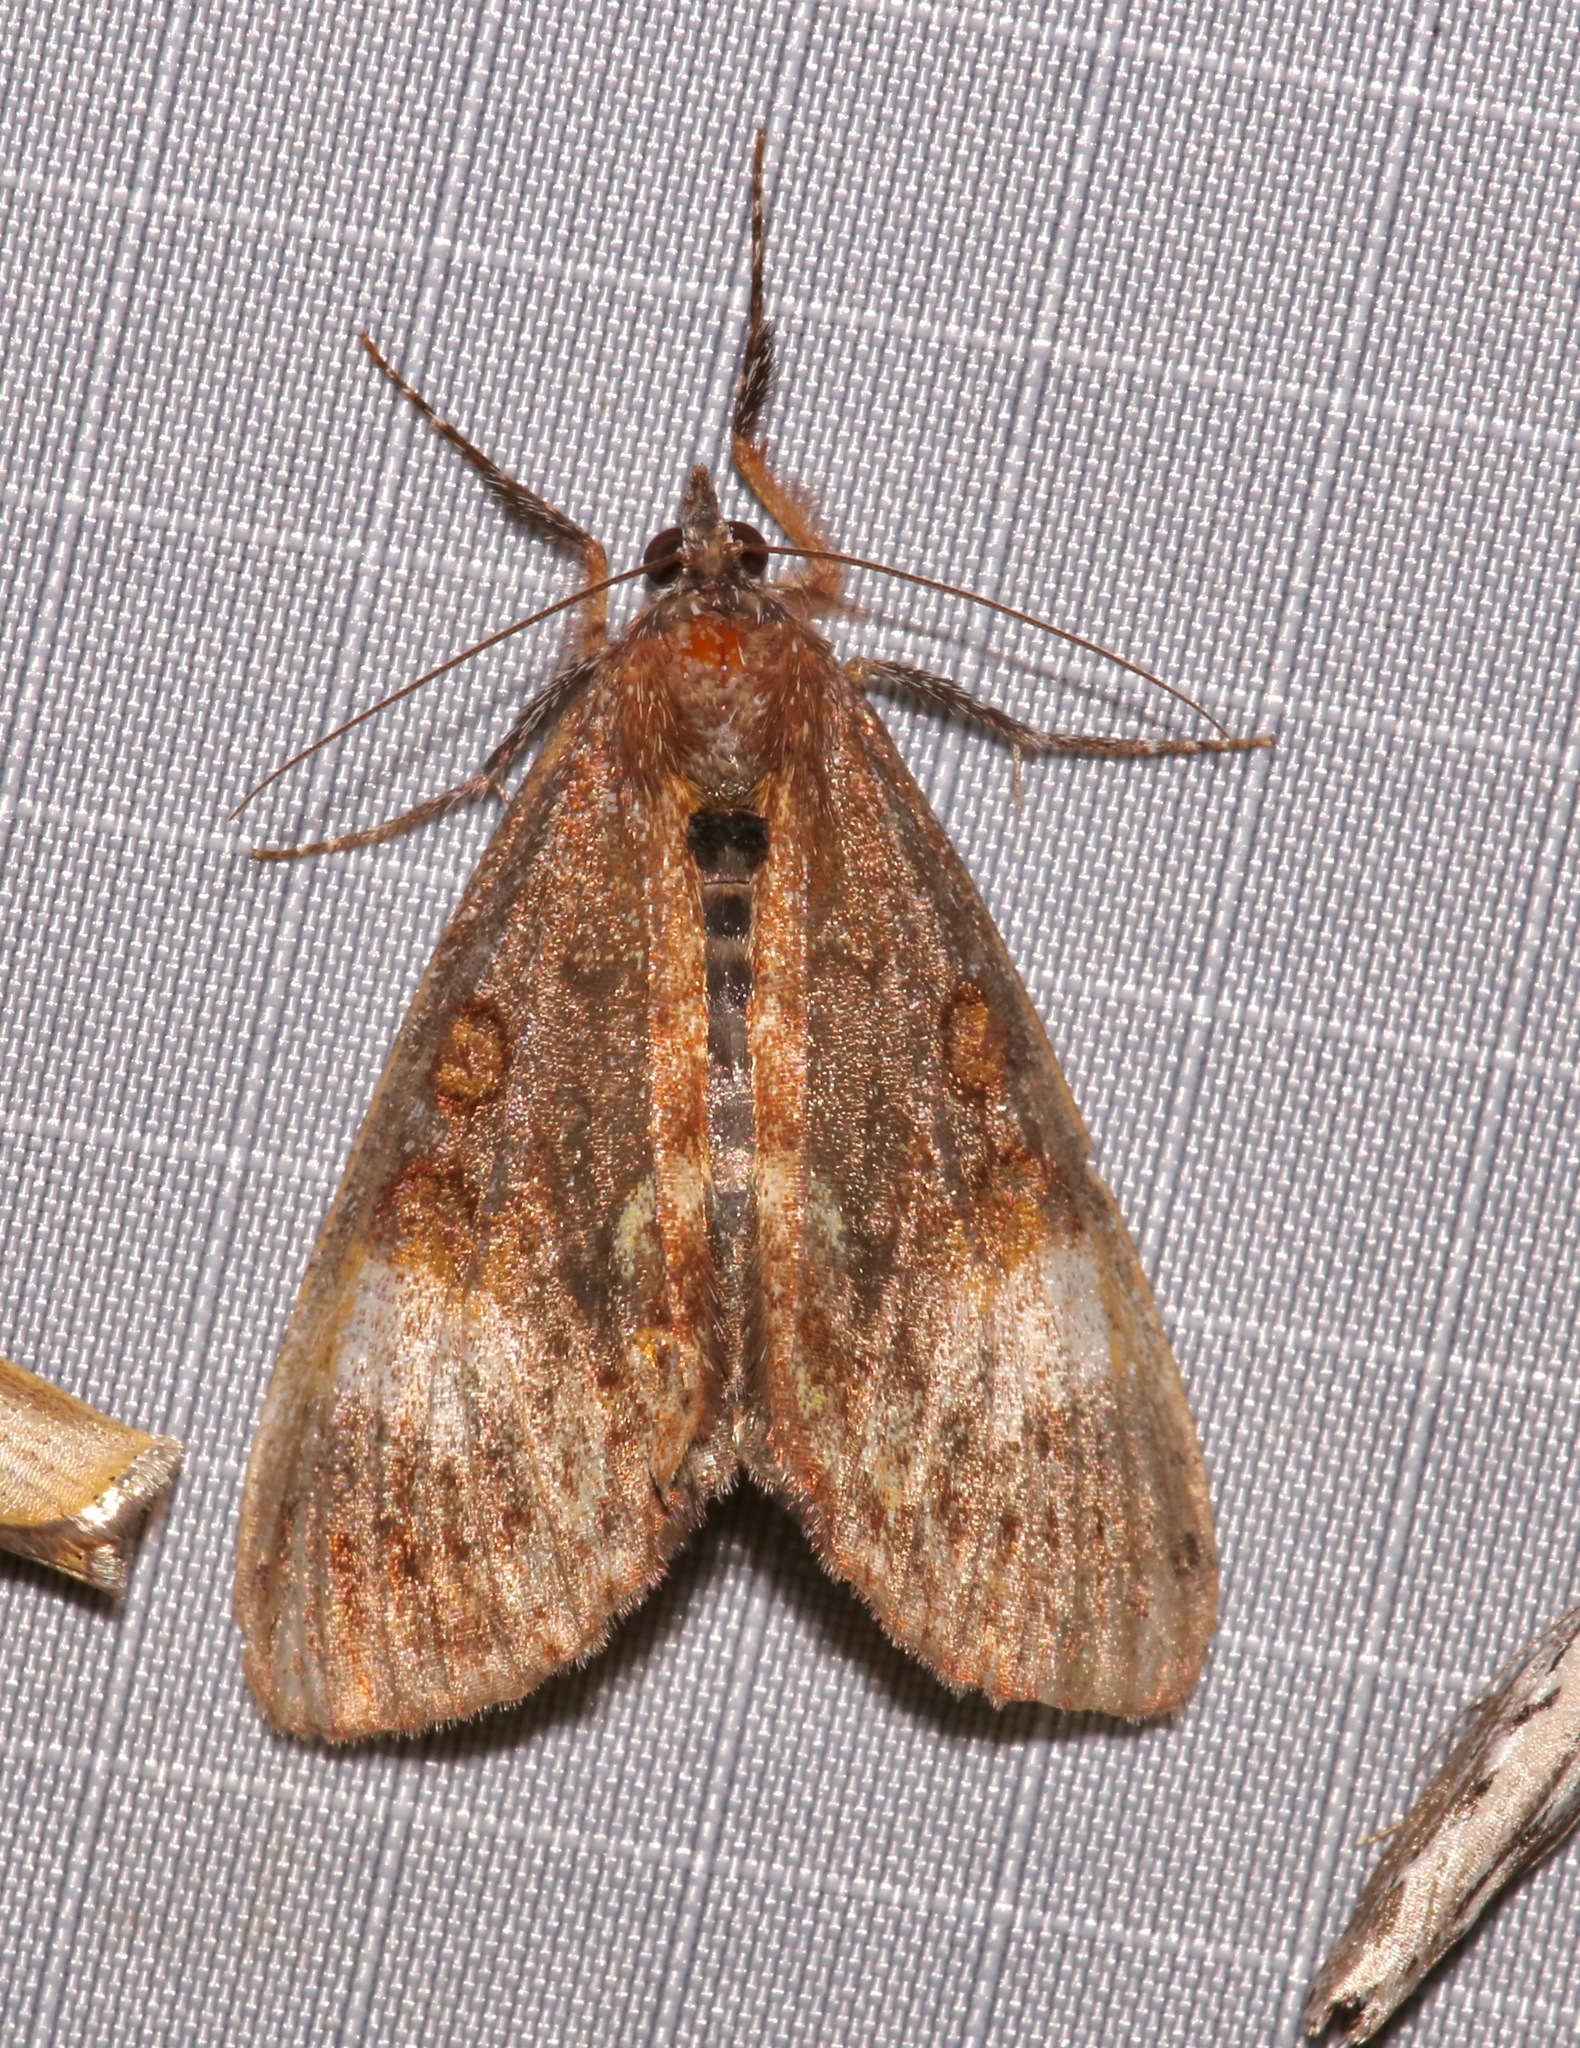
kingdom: Animalia
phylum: Arthropoda
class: Insecta
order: Lepidoptera
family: Noctuidae
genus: Gerra
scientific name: Gerra sevorsa
